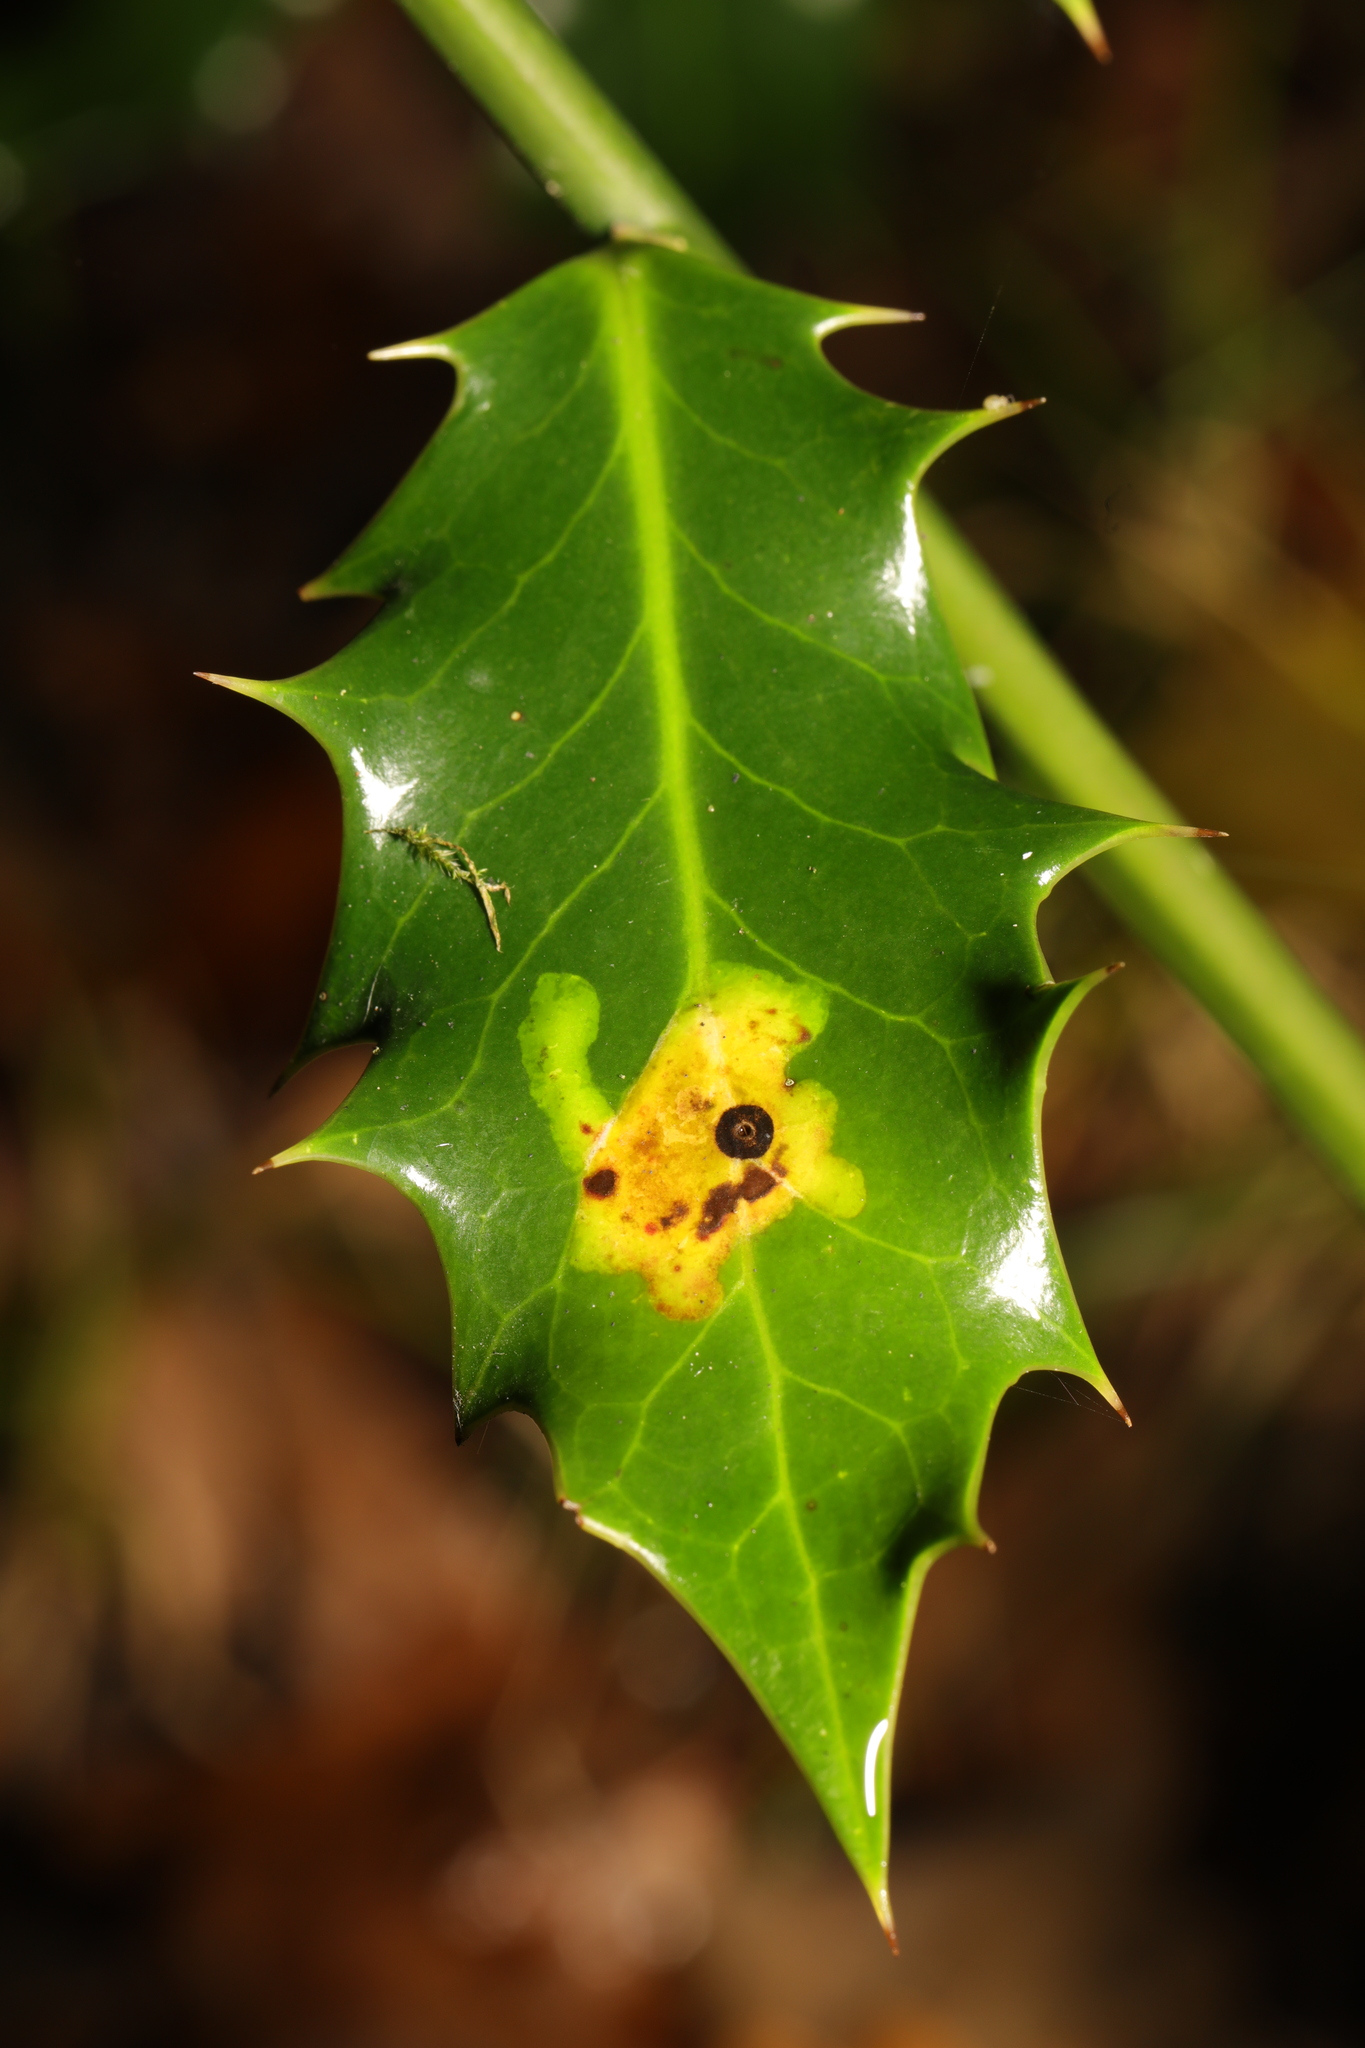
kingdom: Animalia
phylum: Arthropoda
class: Insecta
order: Diptera
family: Agromyzidae
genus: Phytomyza
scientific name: Phytomyza ilicis
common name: Holly leafminer
